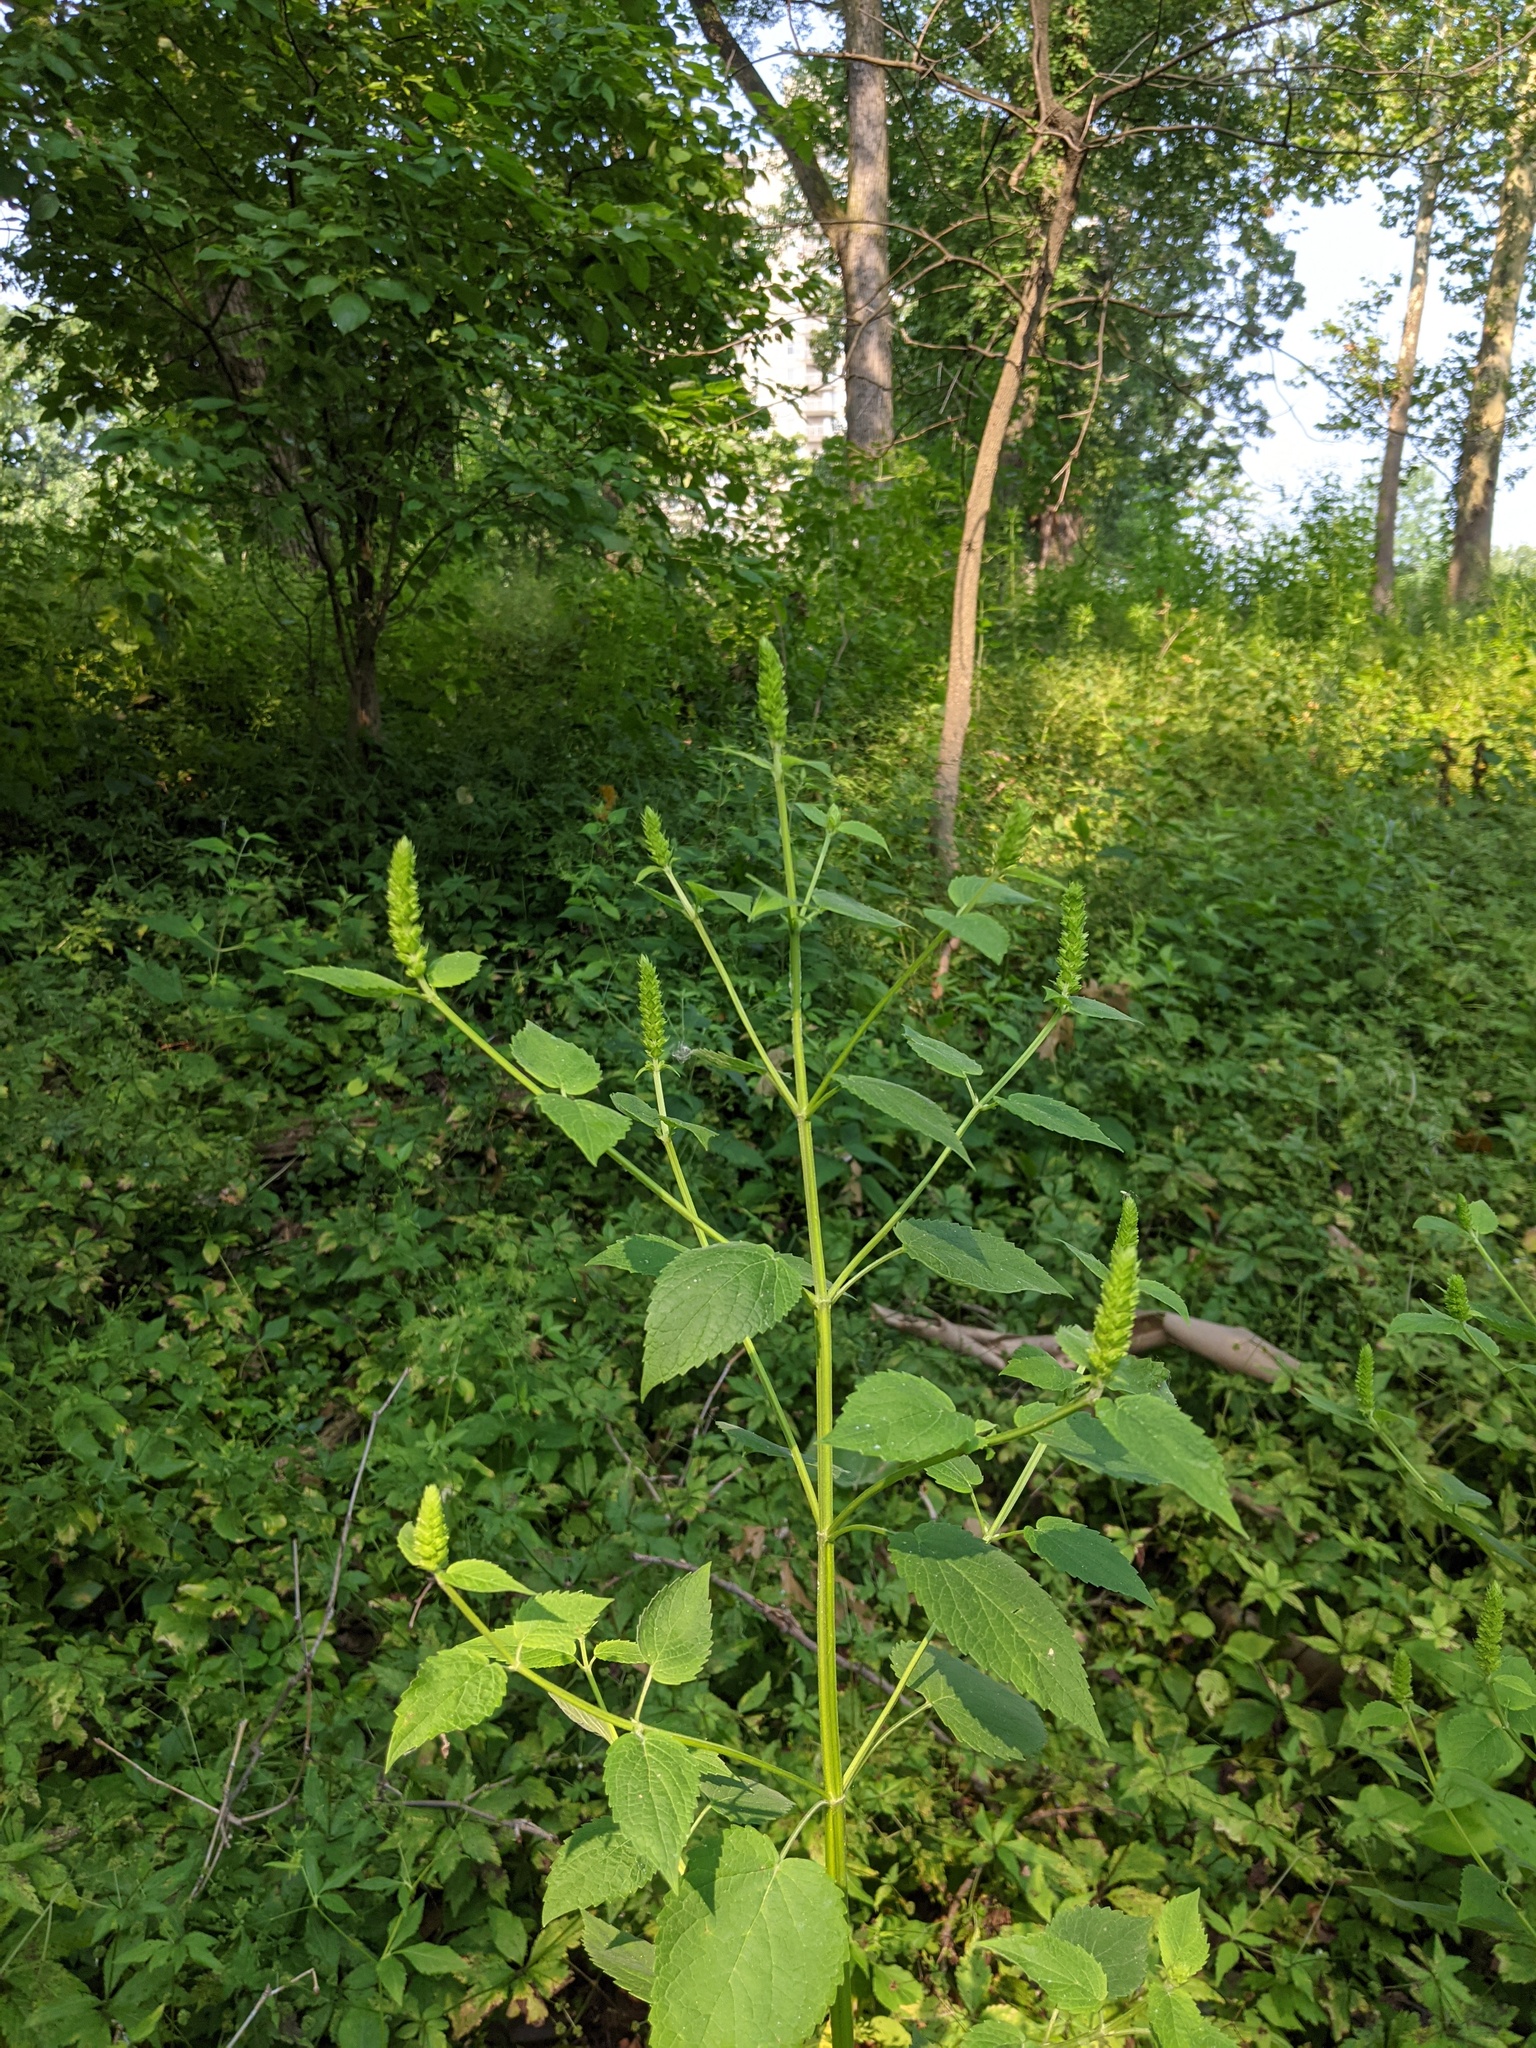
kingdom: Plantae
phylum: Tracheophyta
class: Magnoliopsida
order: Lamiales
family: Lamiaceae
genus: Agastache
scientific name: Agastache nepetoides
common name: Catnip giant hyssop
